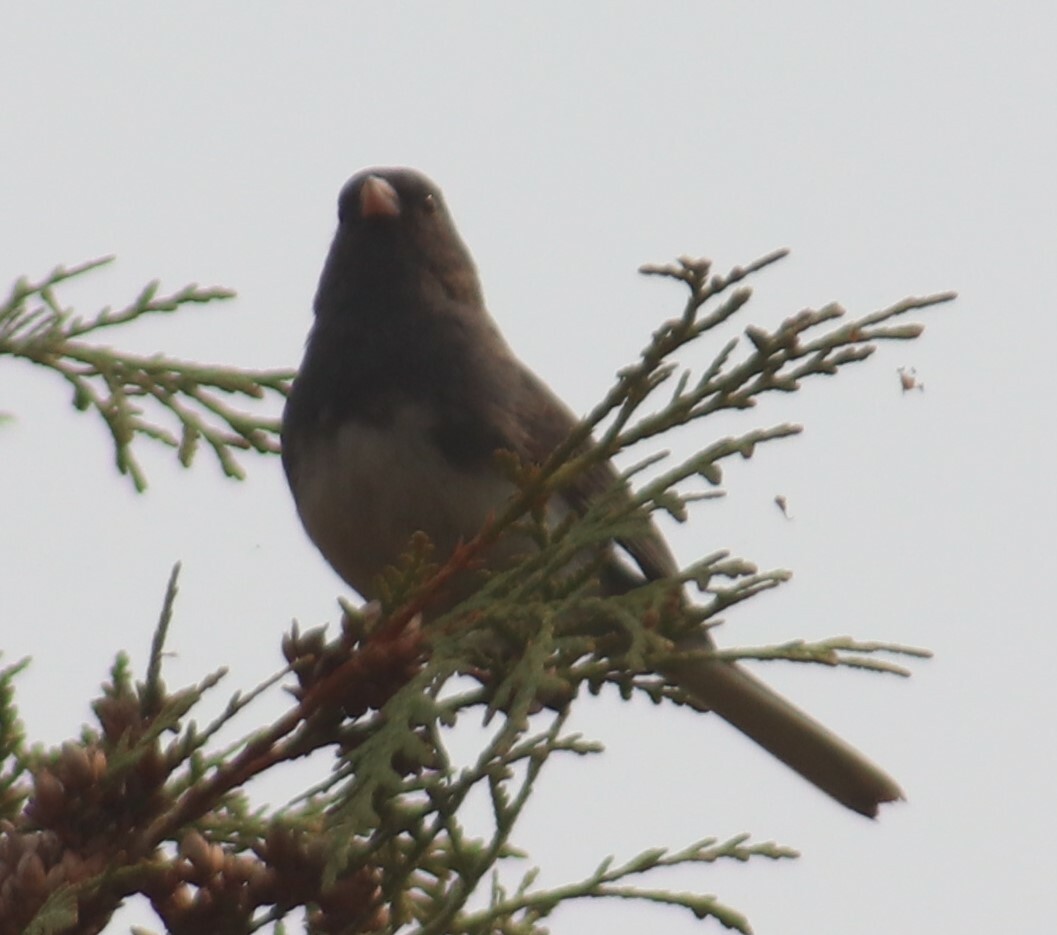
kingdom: Animalia
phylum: Chordata
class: Aves
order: Passeriformes
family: Passerellidae
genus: Junco
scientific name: Junco hyemalis
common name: Dark-eyed junco
